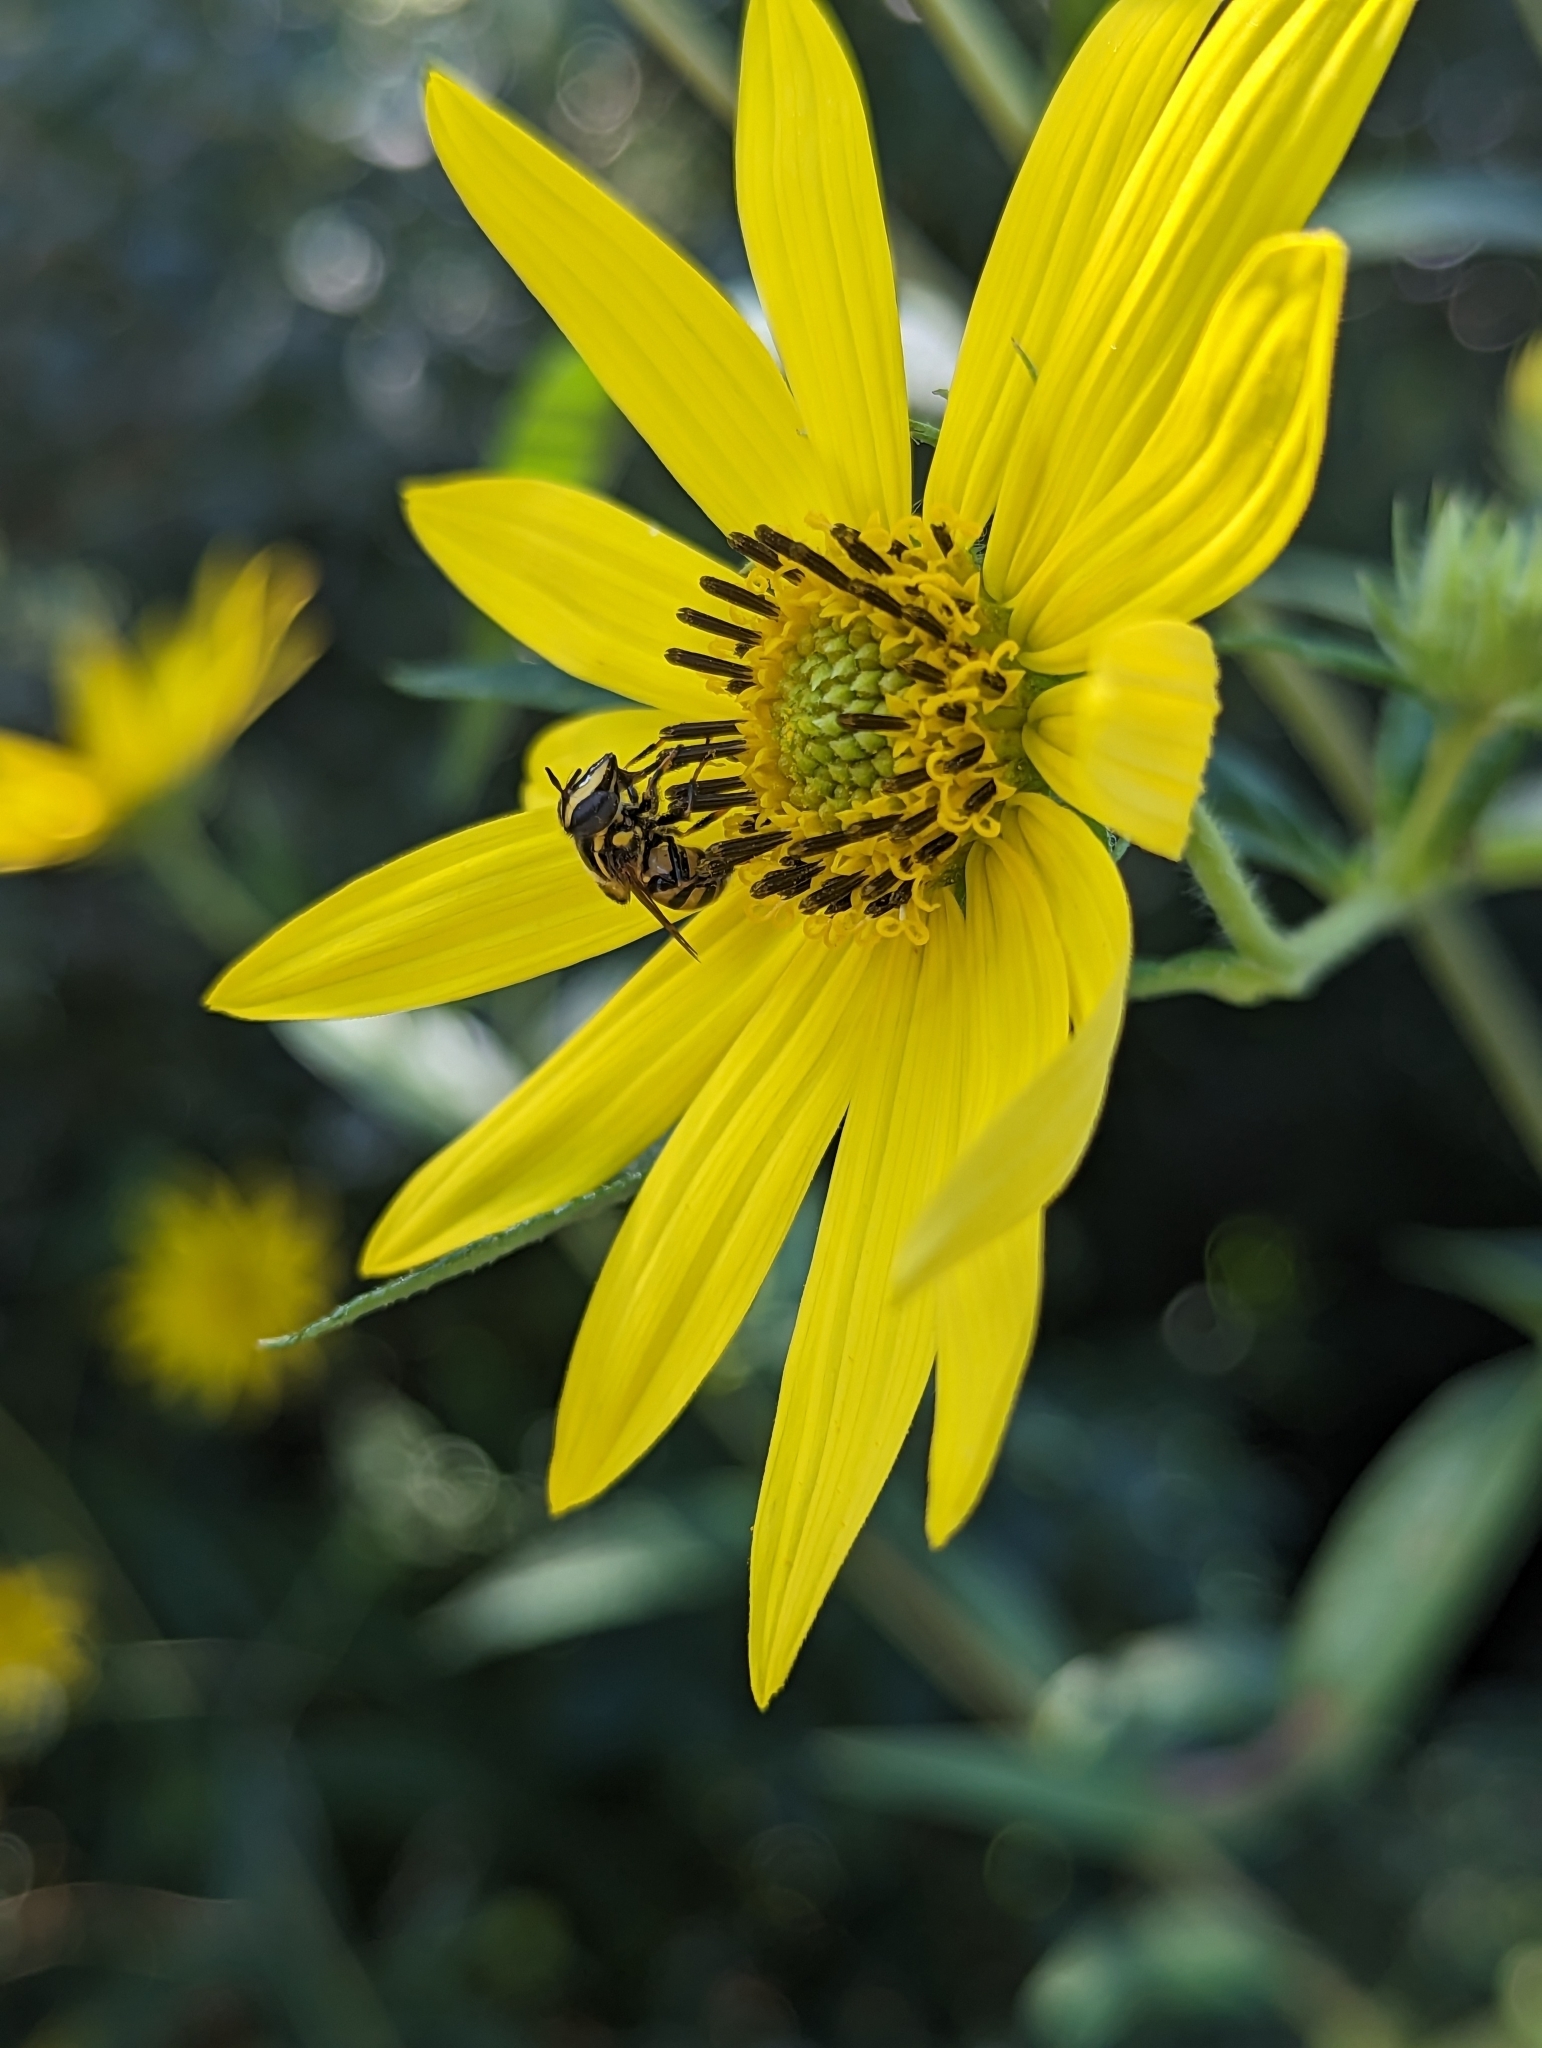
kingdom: Animalia
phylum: Arthropoda
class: Insecta
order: Diptera
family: Syrphidae
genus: Copestylum
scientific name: Copestylum vittatum
